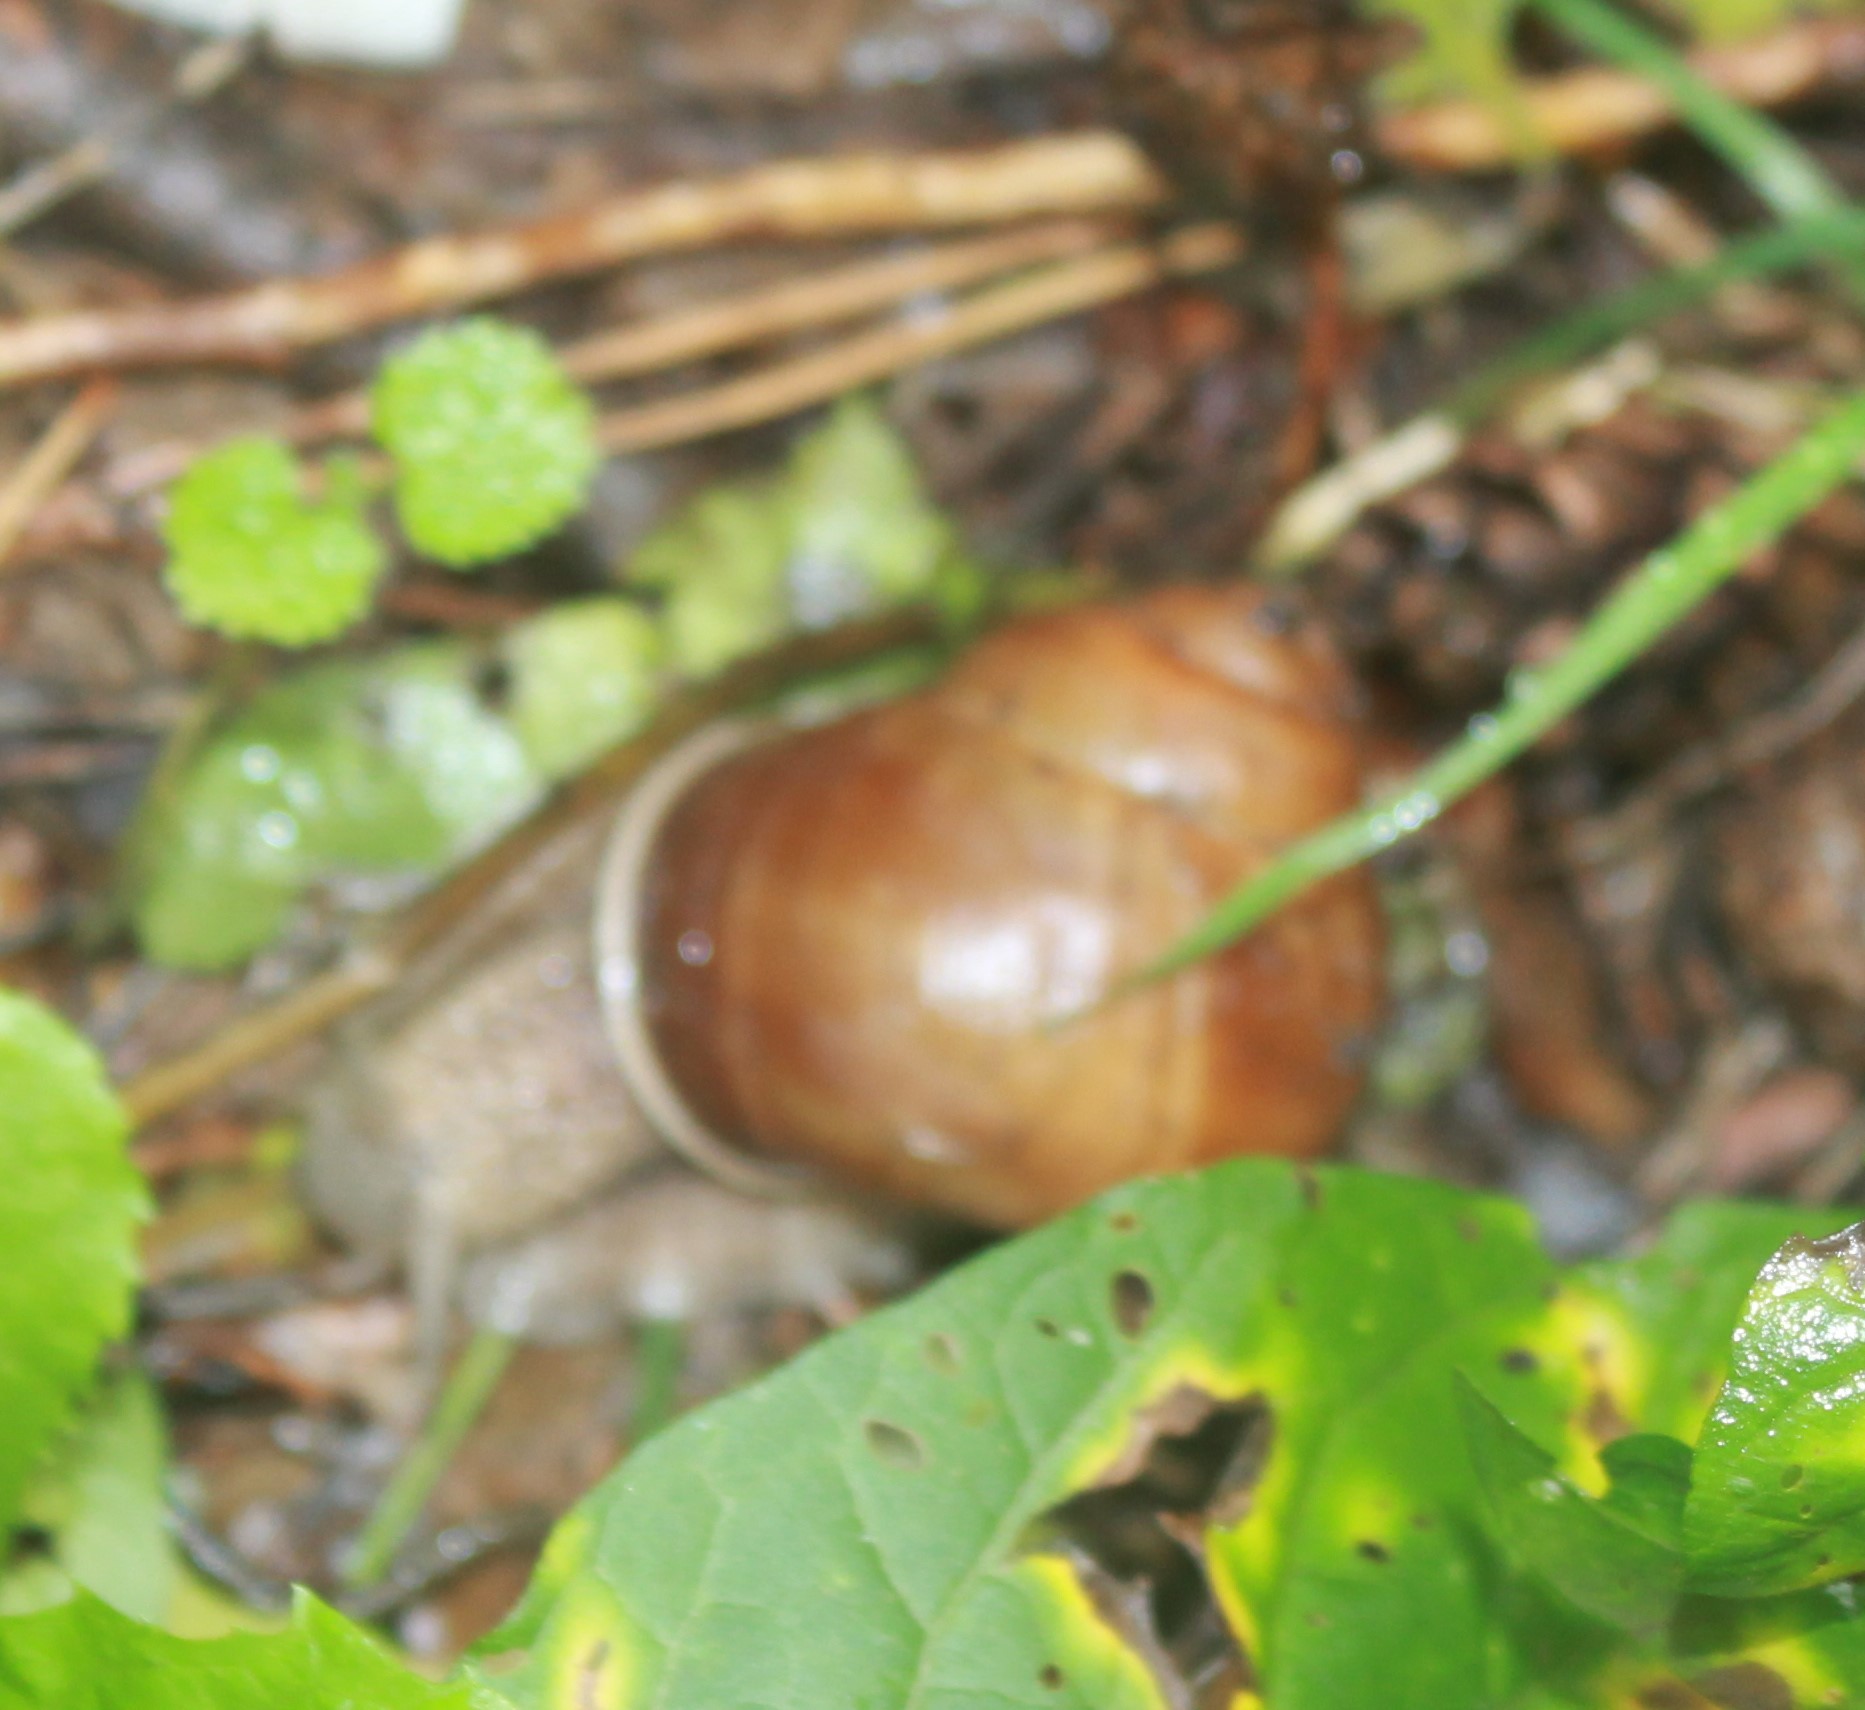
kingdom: Animalia
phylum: Mollusca
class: Gastropoda
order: Stylommatophora
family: Helicidae
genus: Helix
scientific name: Helix pomatia
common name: Roman snail
